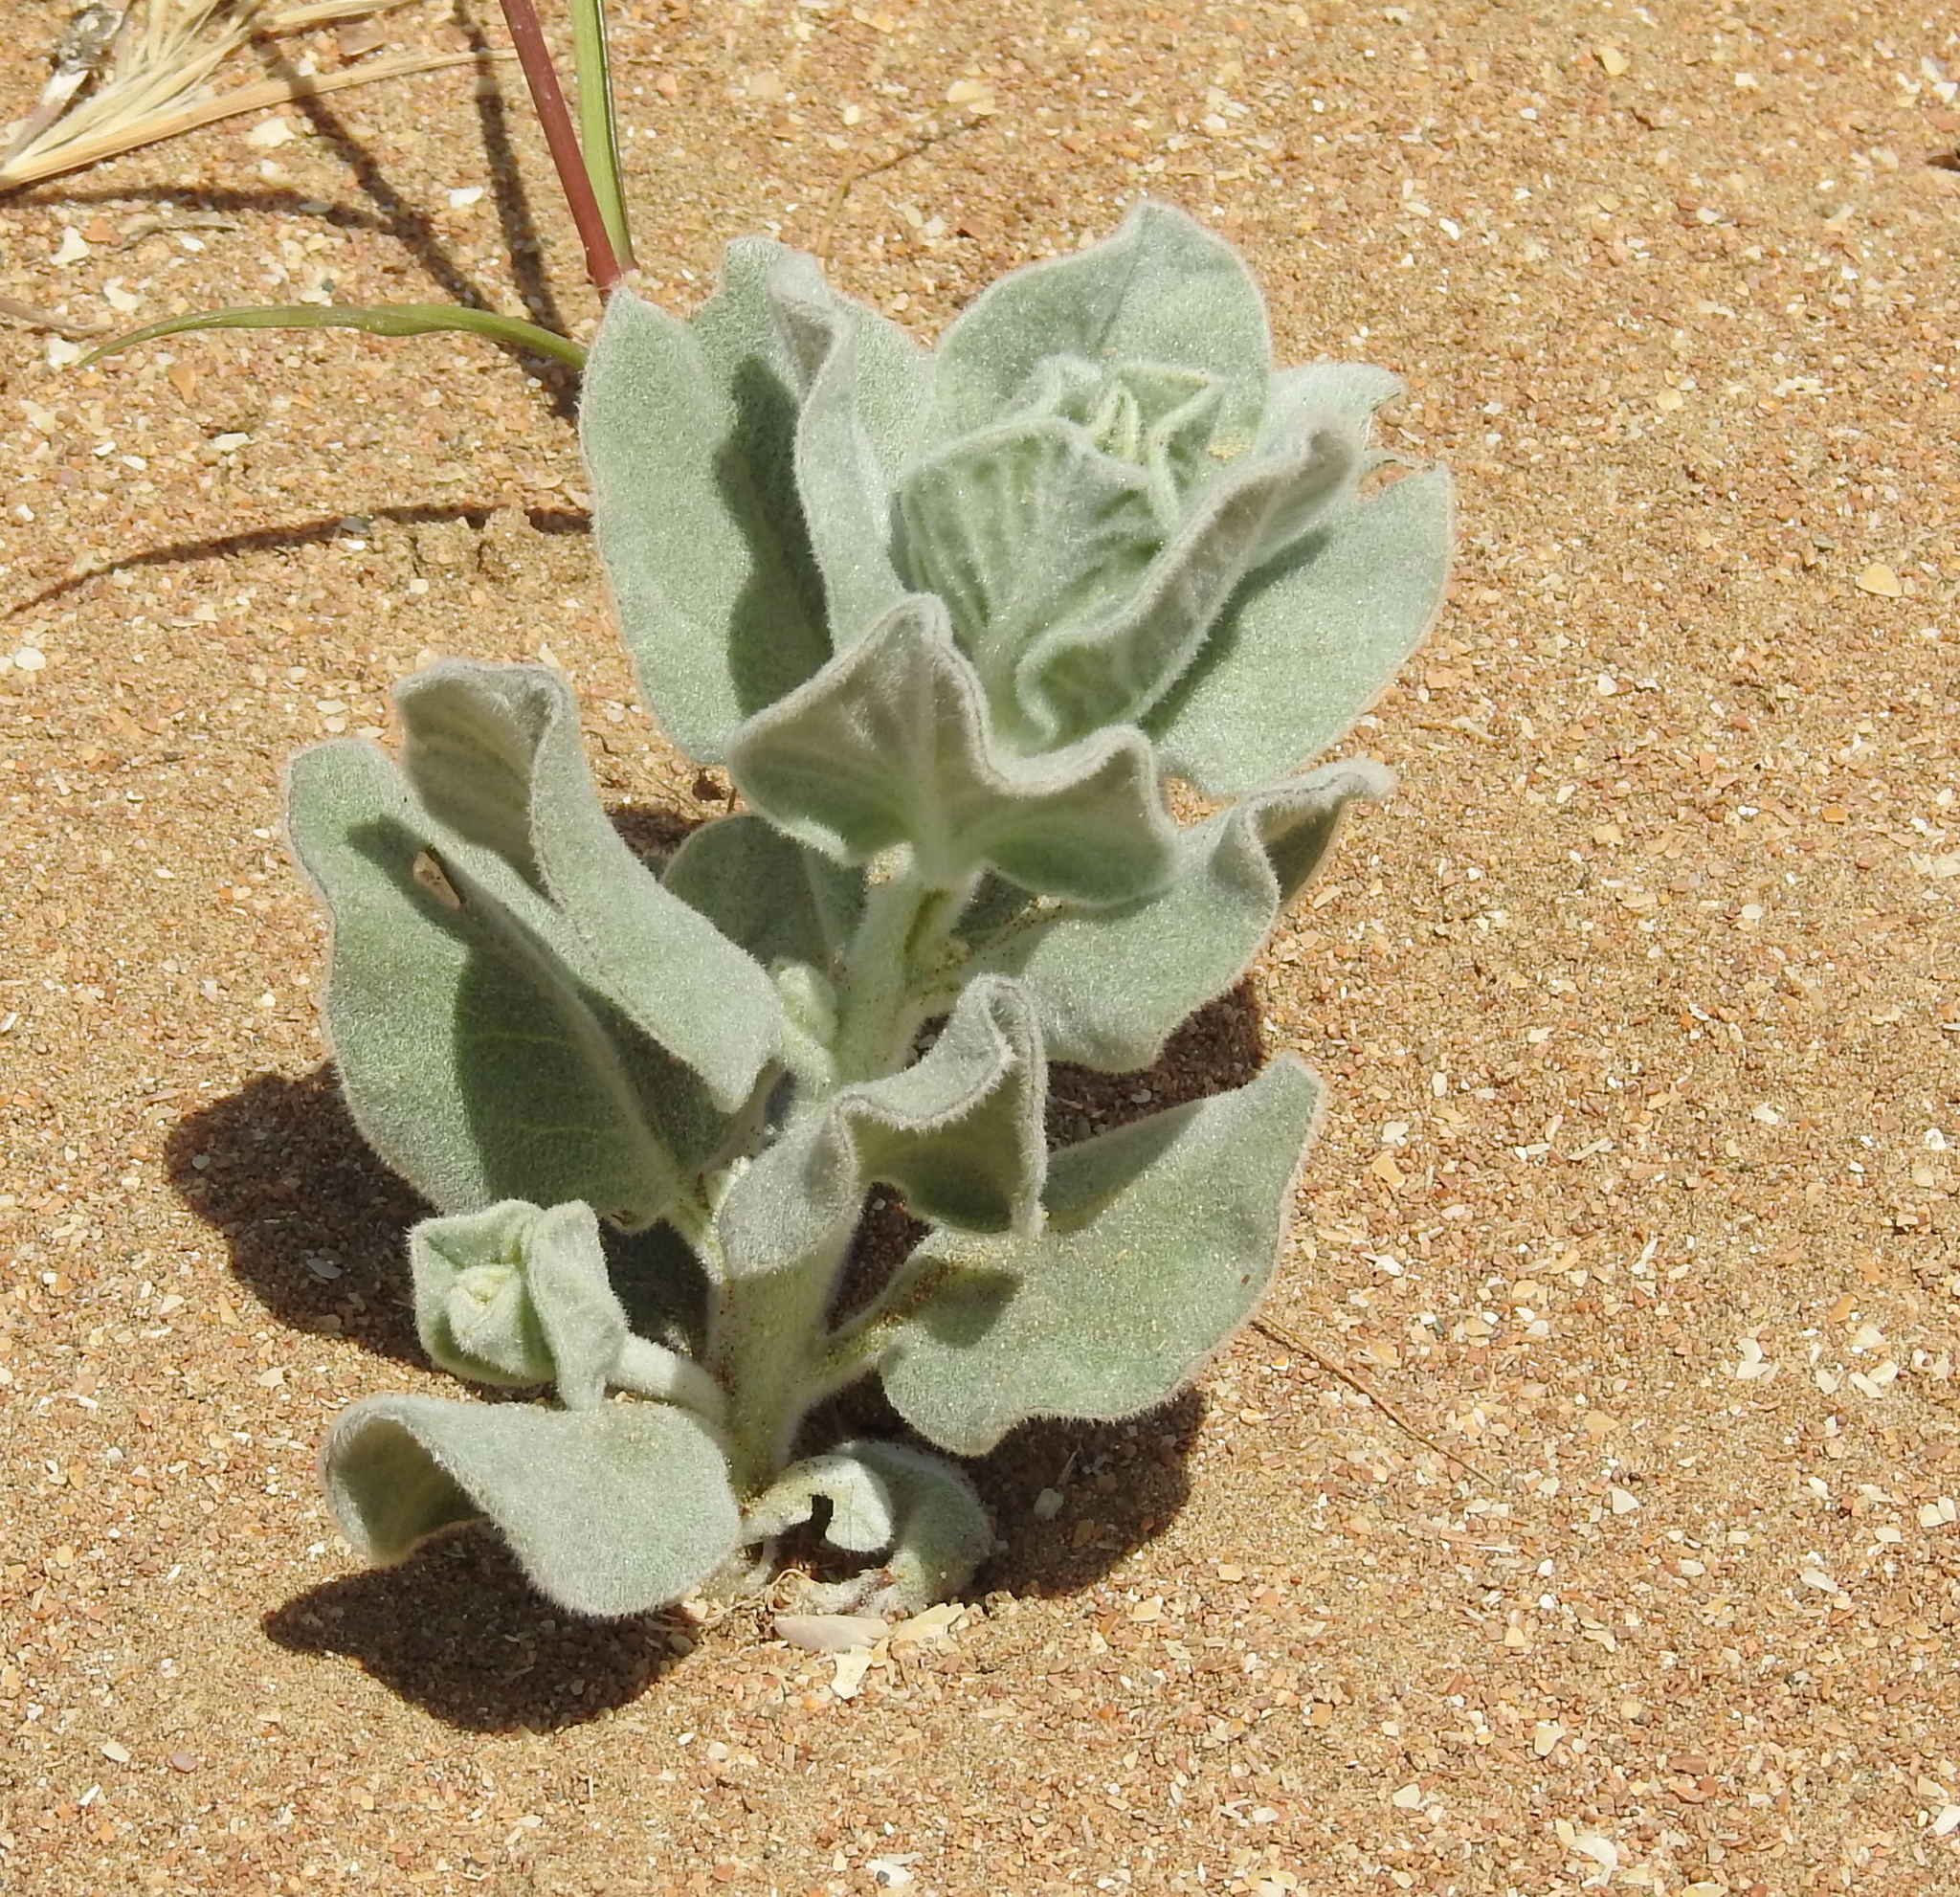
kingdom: Plantae
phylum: Tracheophyta
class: Magnoliopsida
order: Solanales
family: Convolvulaceae
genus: Convolvulus
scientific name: Convolvulus persicus
